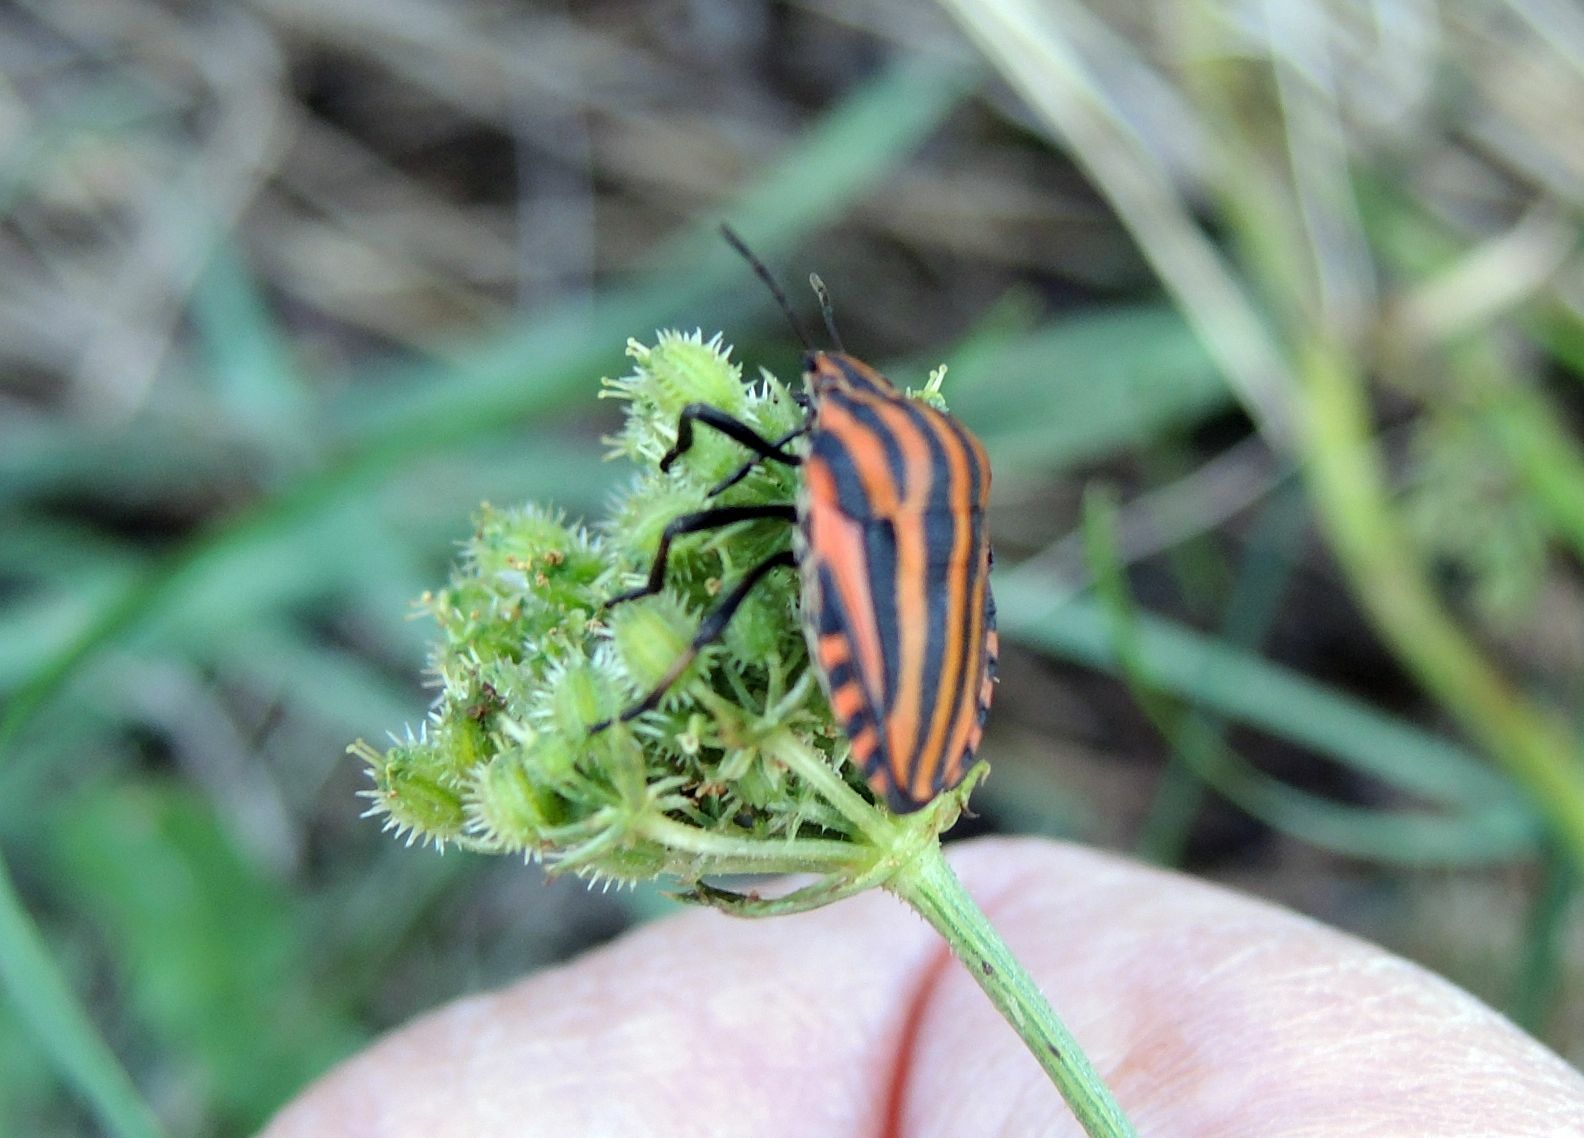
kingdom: Animalia
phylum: Arthropoda
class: Insecta
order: Hemiptera
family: Pentatomidae
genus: Graphosoma
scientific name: Graphosoma italicum
